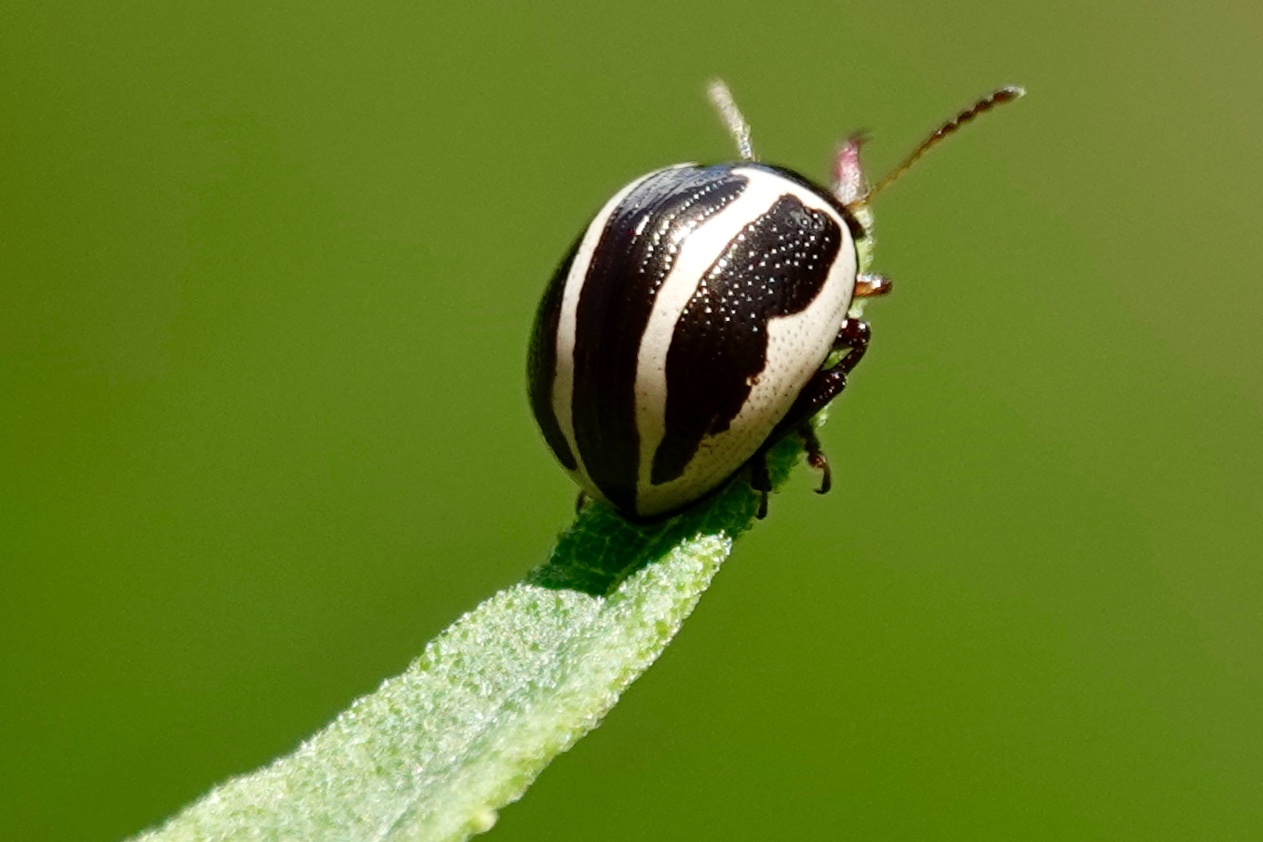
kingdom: Animalia
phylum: Arthropoda
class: Insecta
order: Coleoptera
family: Chrysomelidae
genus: Calligrapha
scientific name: Calligrapha
